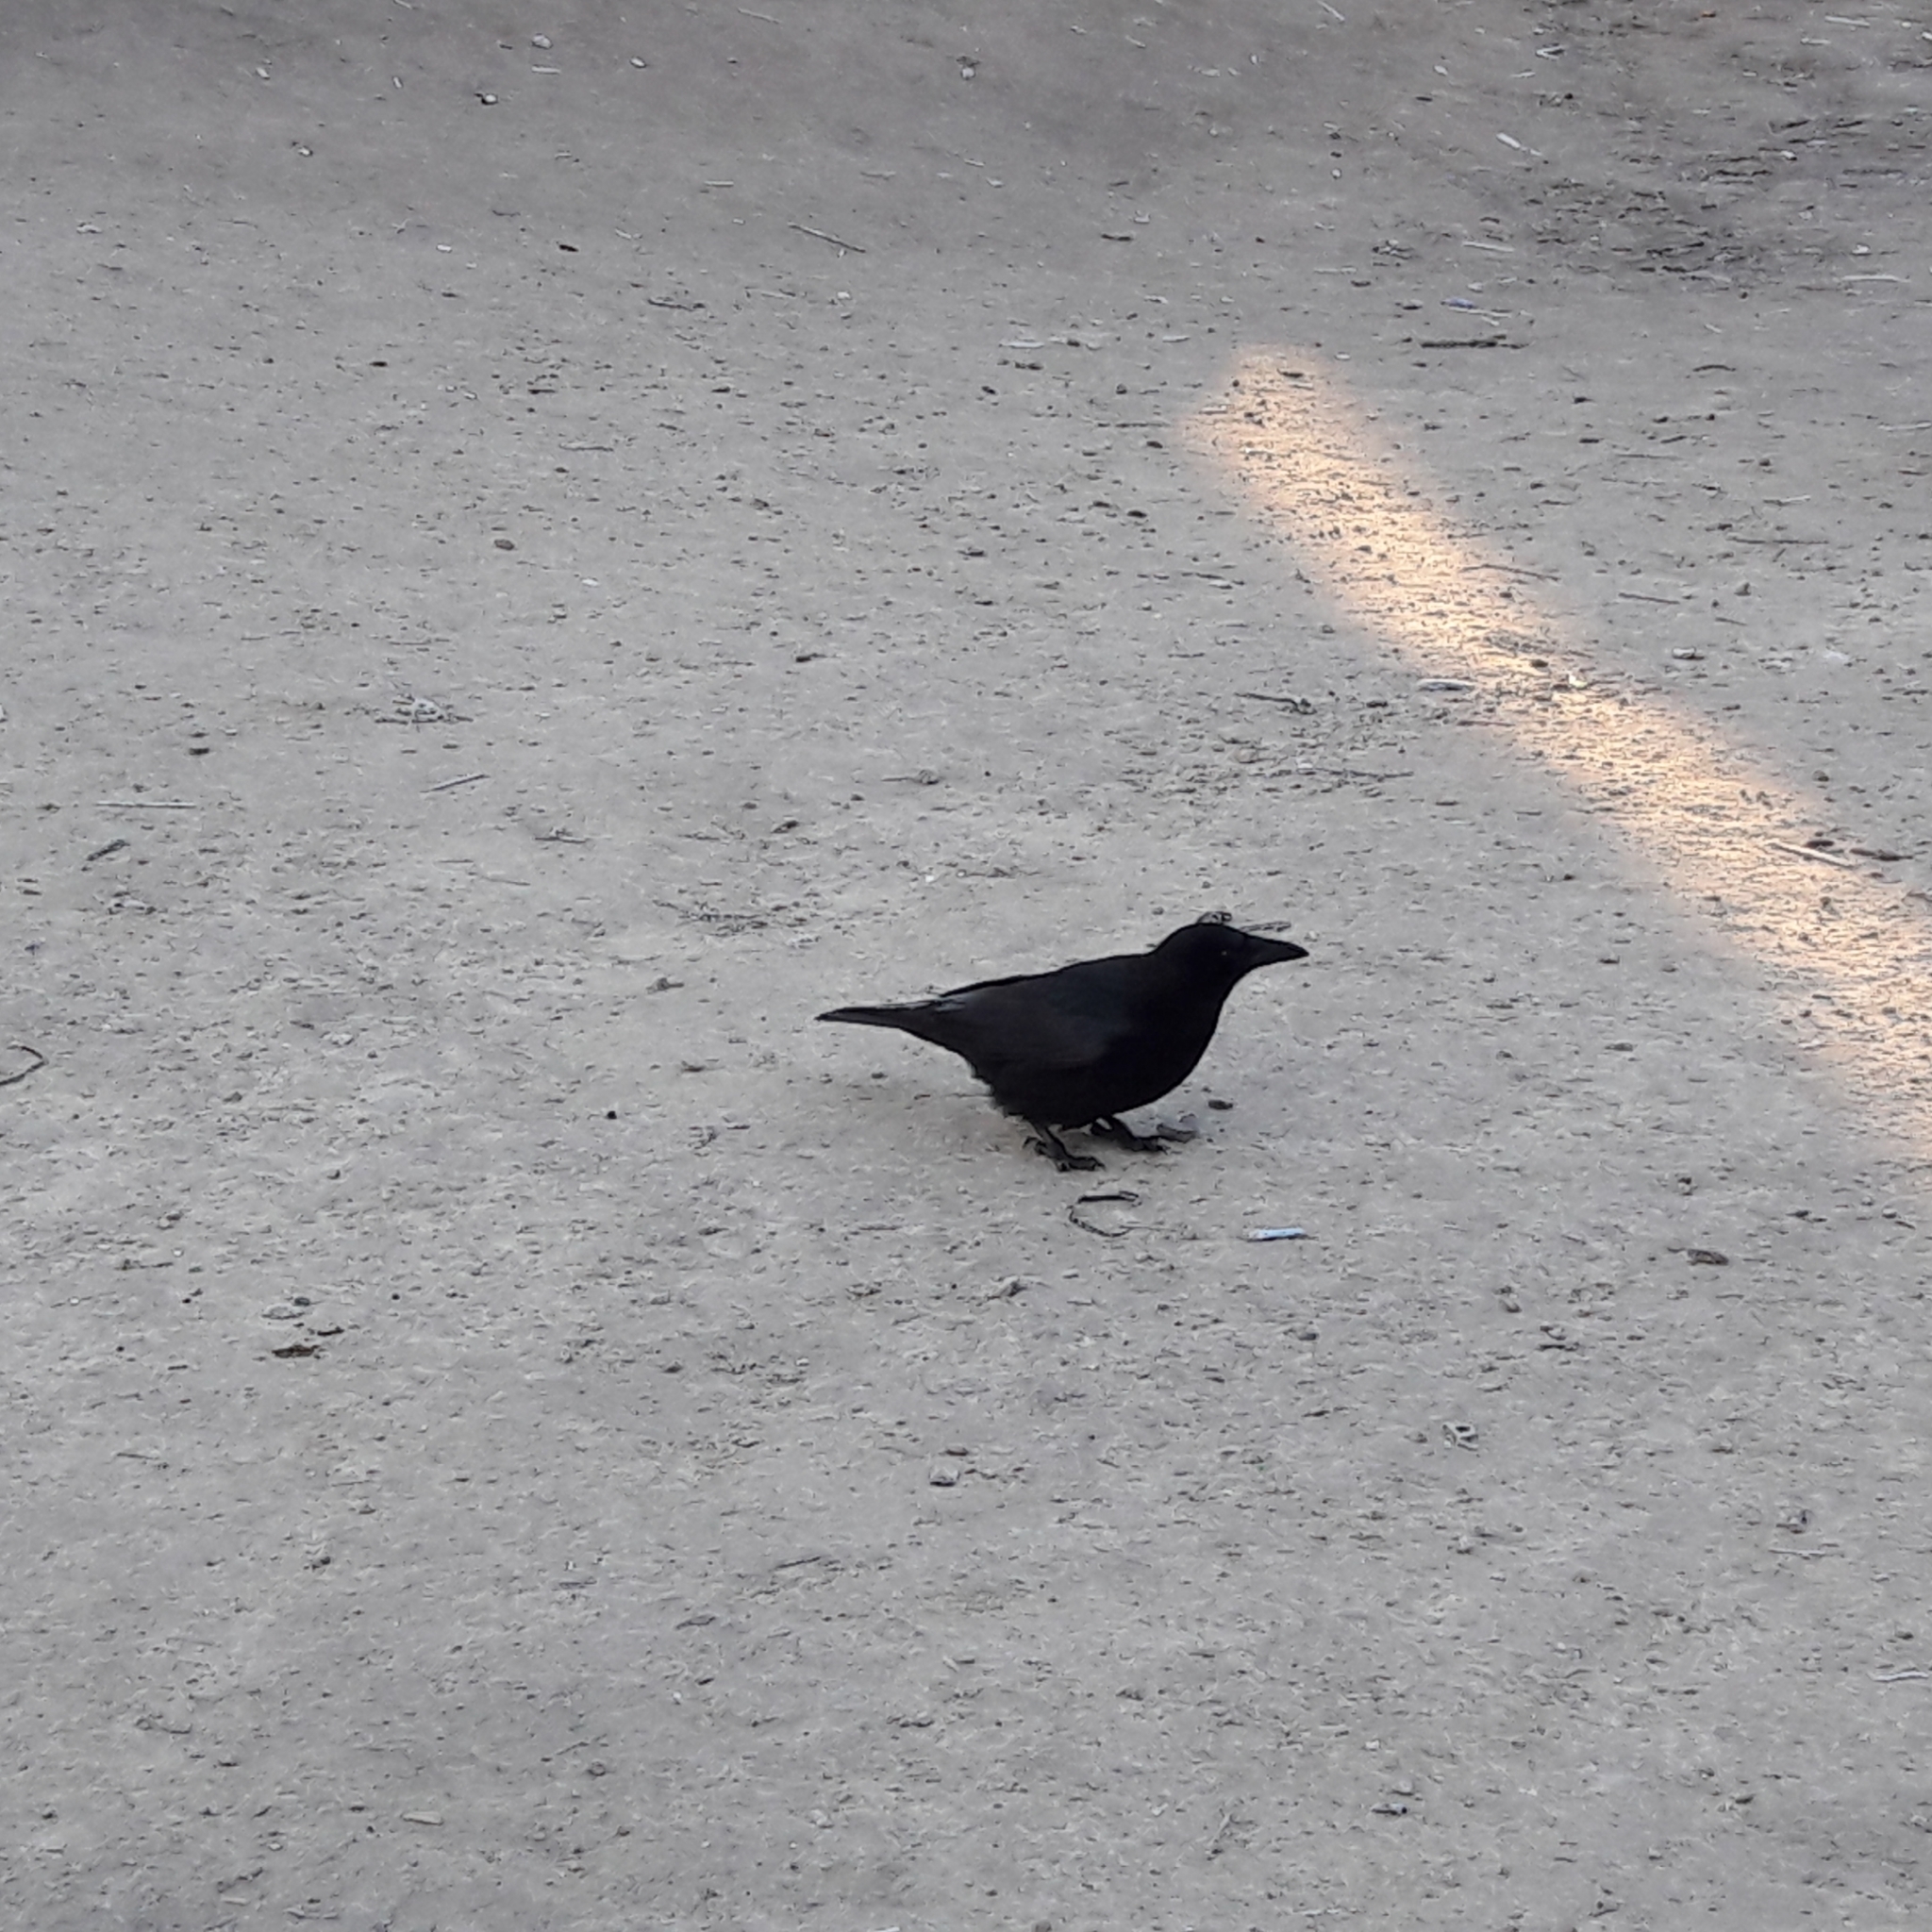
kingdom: Animalia
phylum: Chordata
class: Aves
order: Passeriformes
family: Corvidae
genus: Corvus
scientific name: Corvus corone
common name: Carrion crow
